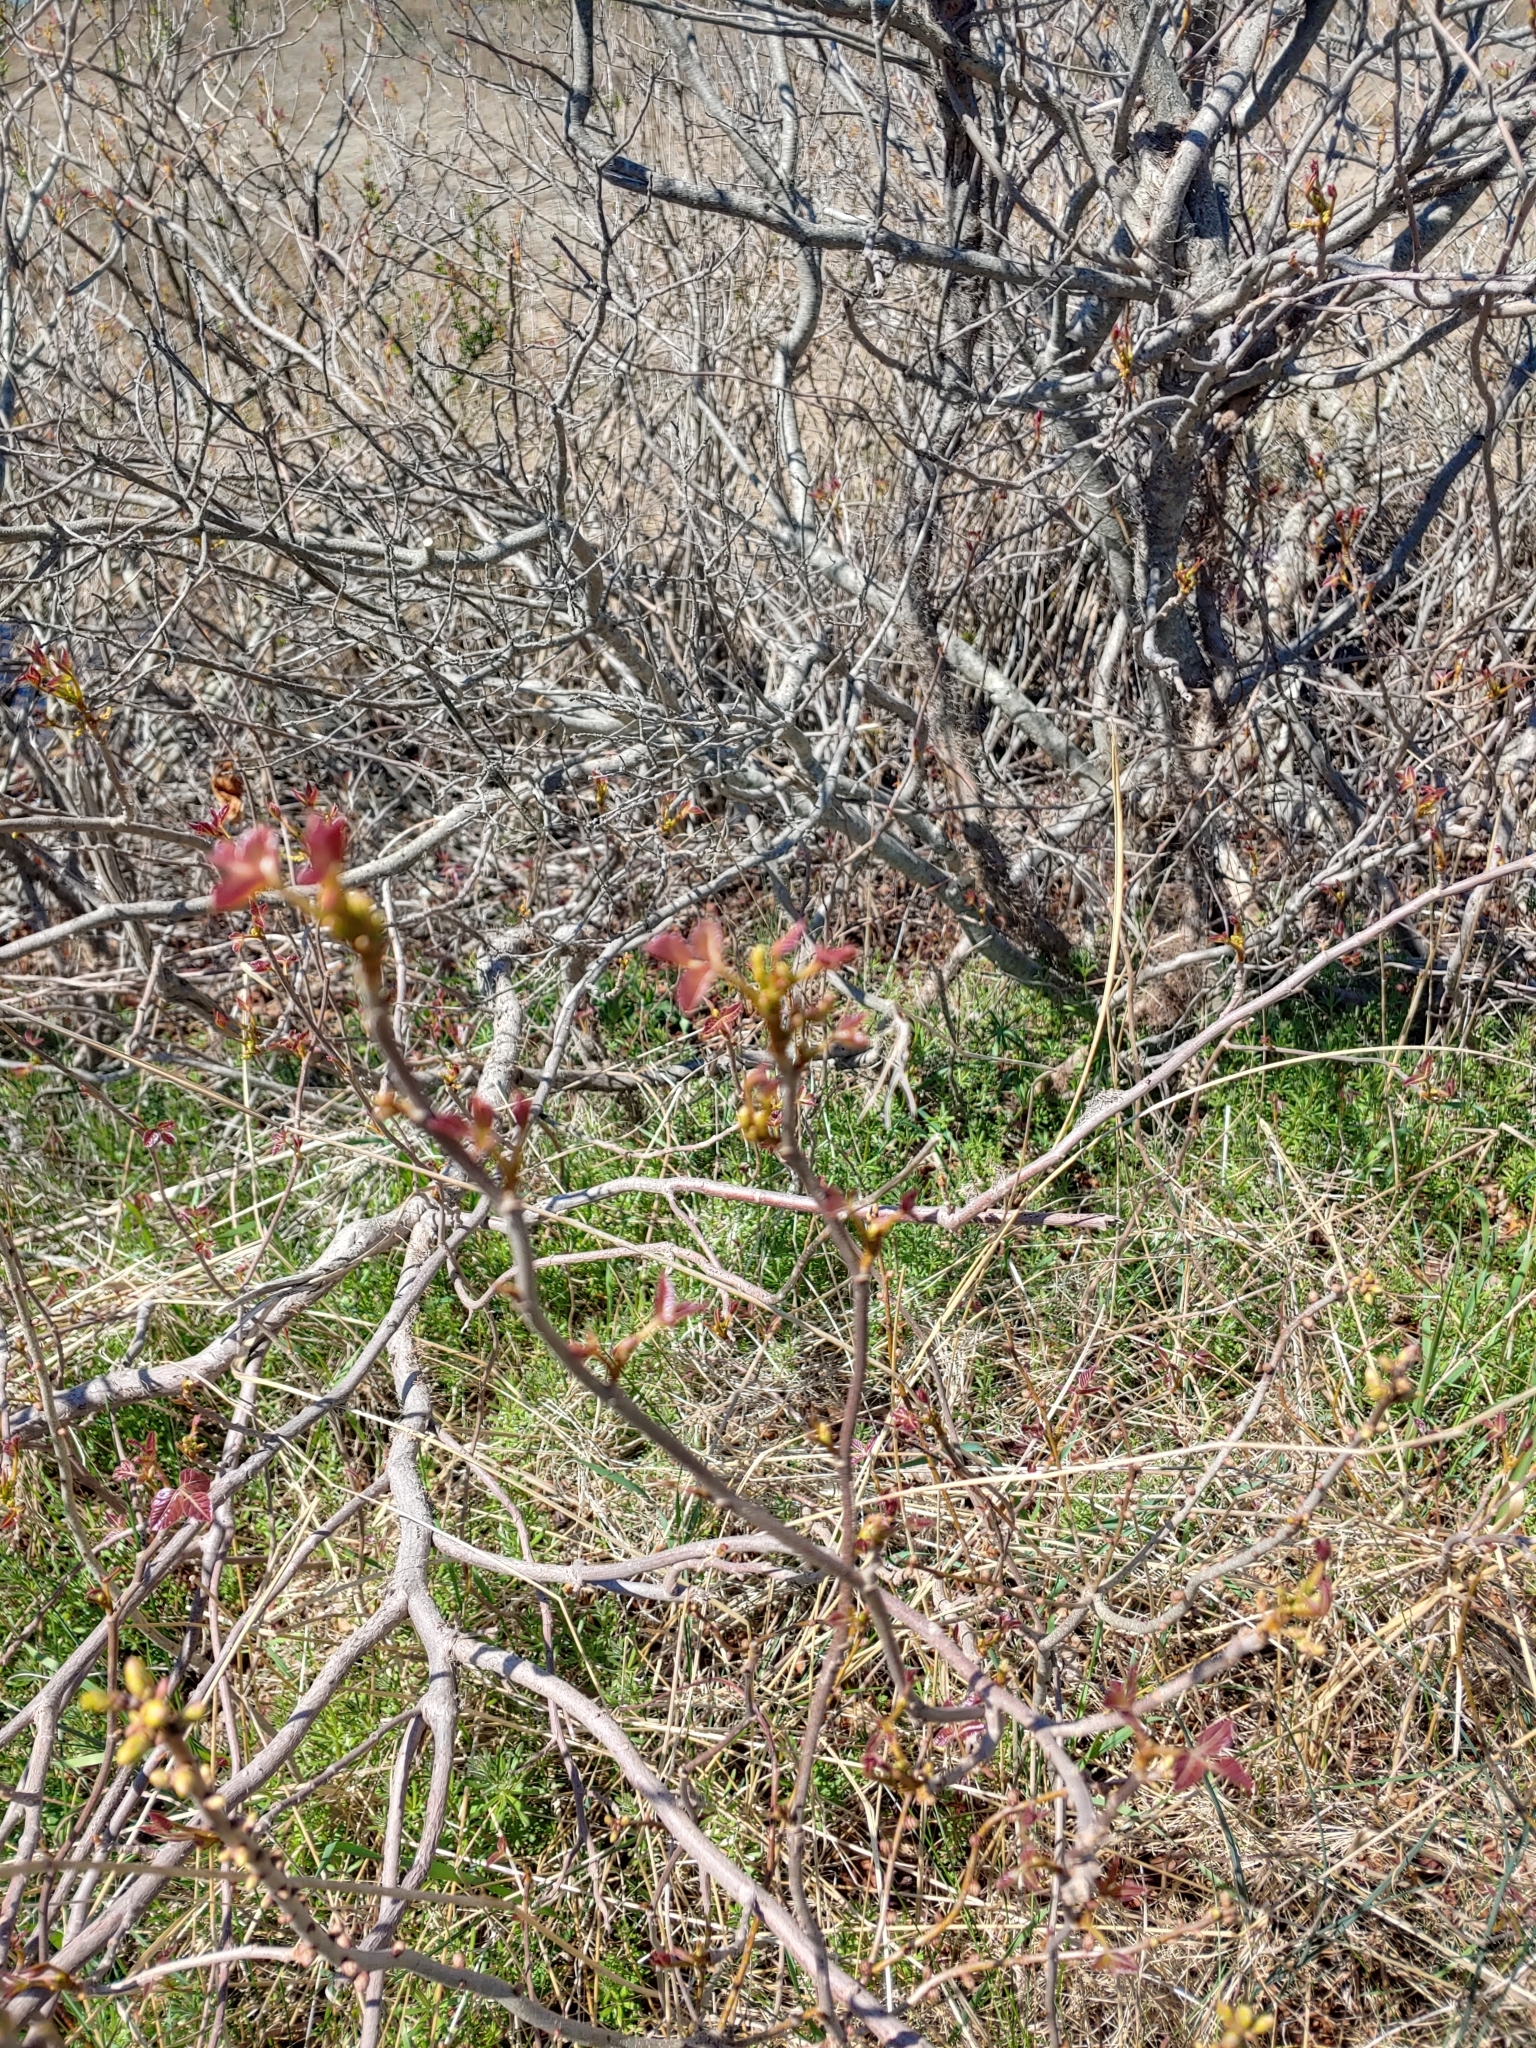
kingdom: Plantae
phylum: Tracheophyta
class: Magnoliopsida
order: Sapindales
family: Anacardiaceae
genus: Rhus
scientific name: Rhus aromatica
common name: Aromatic sumac
